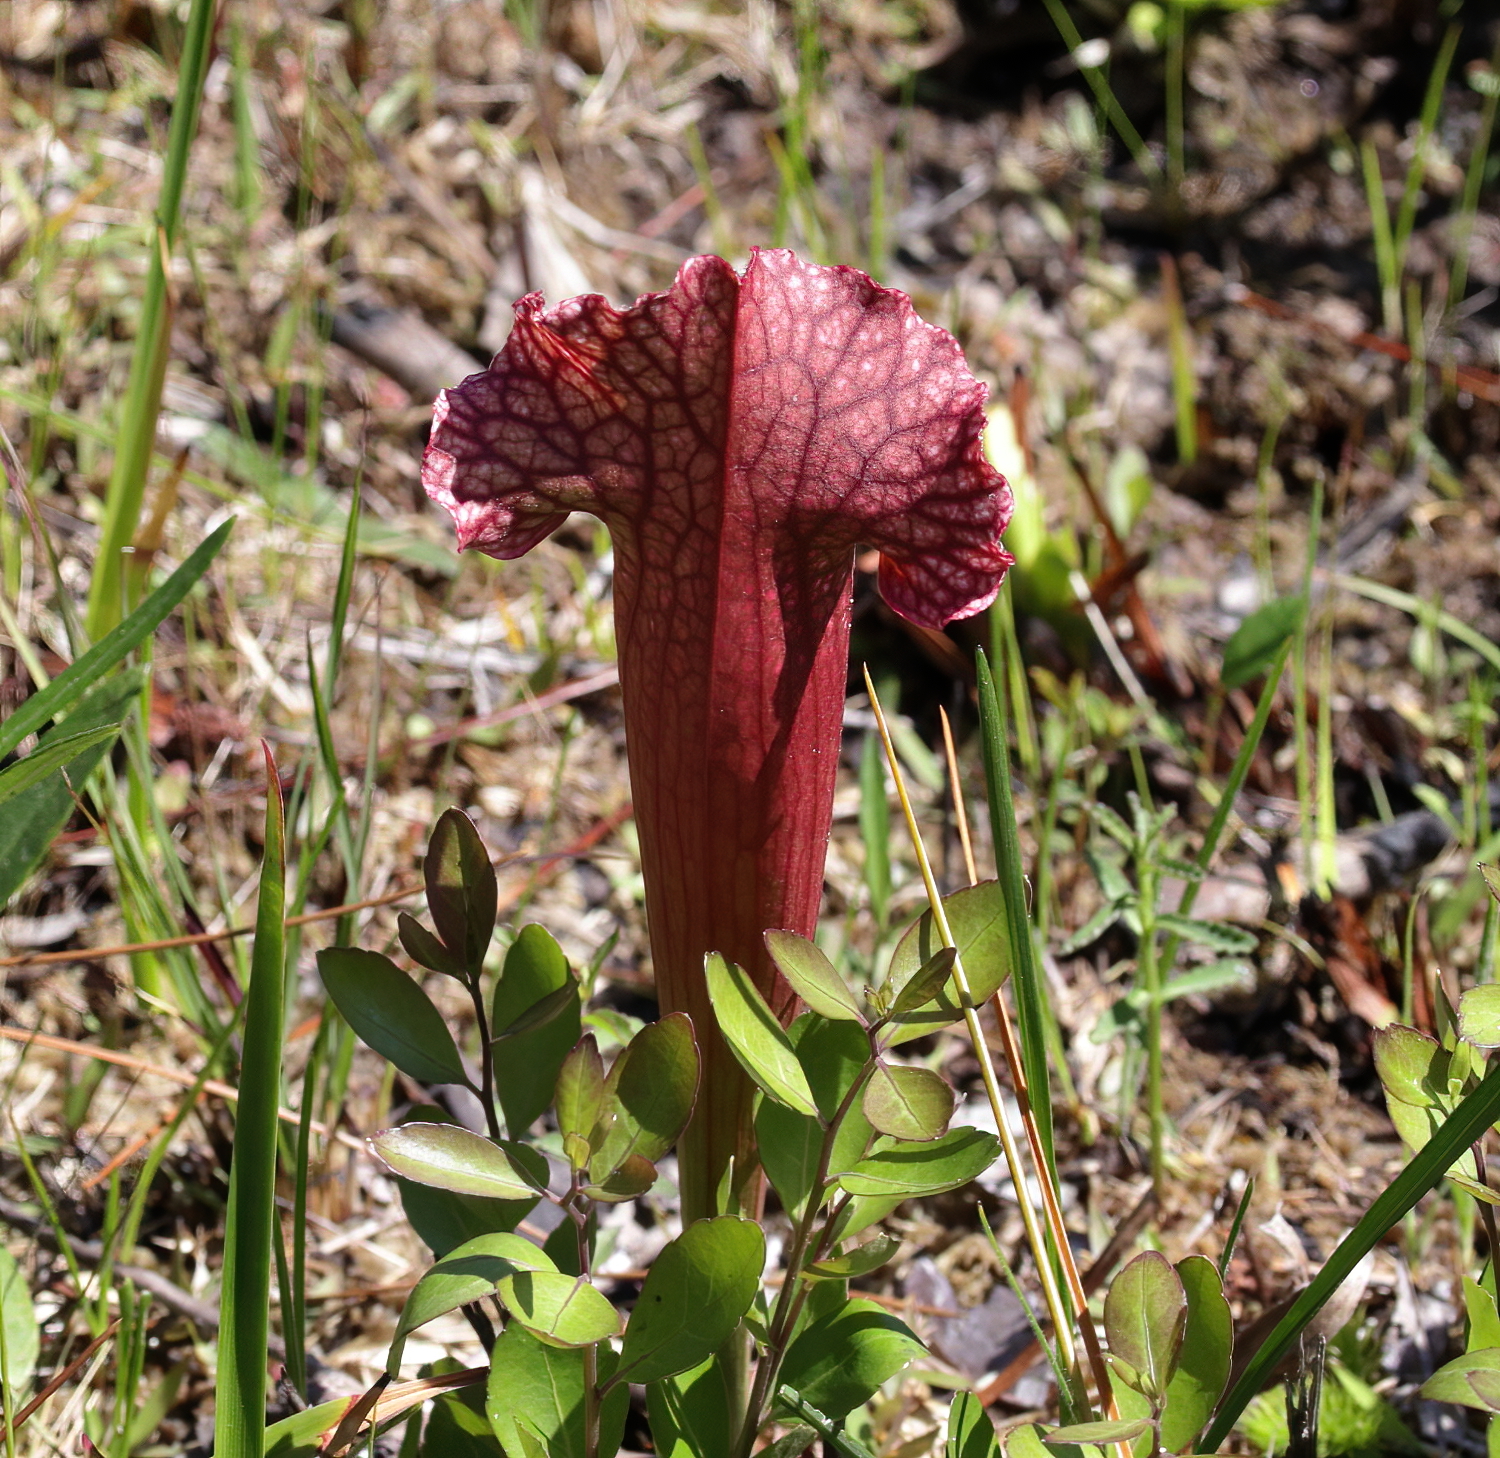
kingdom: Plantae
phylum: Tracheophyta
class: Magnoliopsida
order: Ericales
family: Sarraceniaceae
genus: Sarracenia
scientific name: Sarracenia mitchelliana
